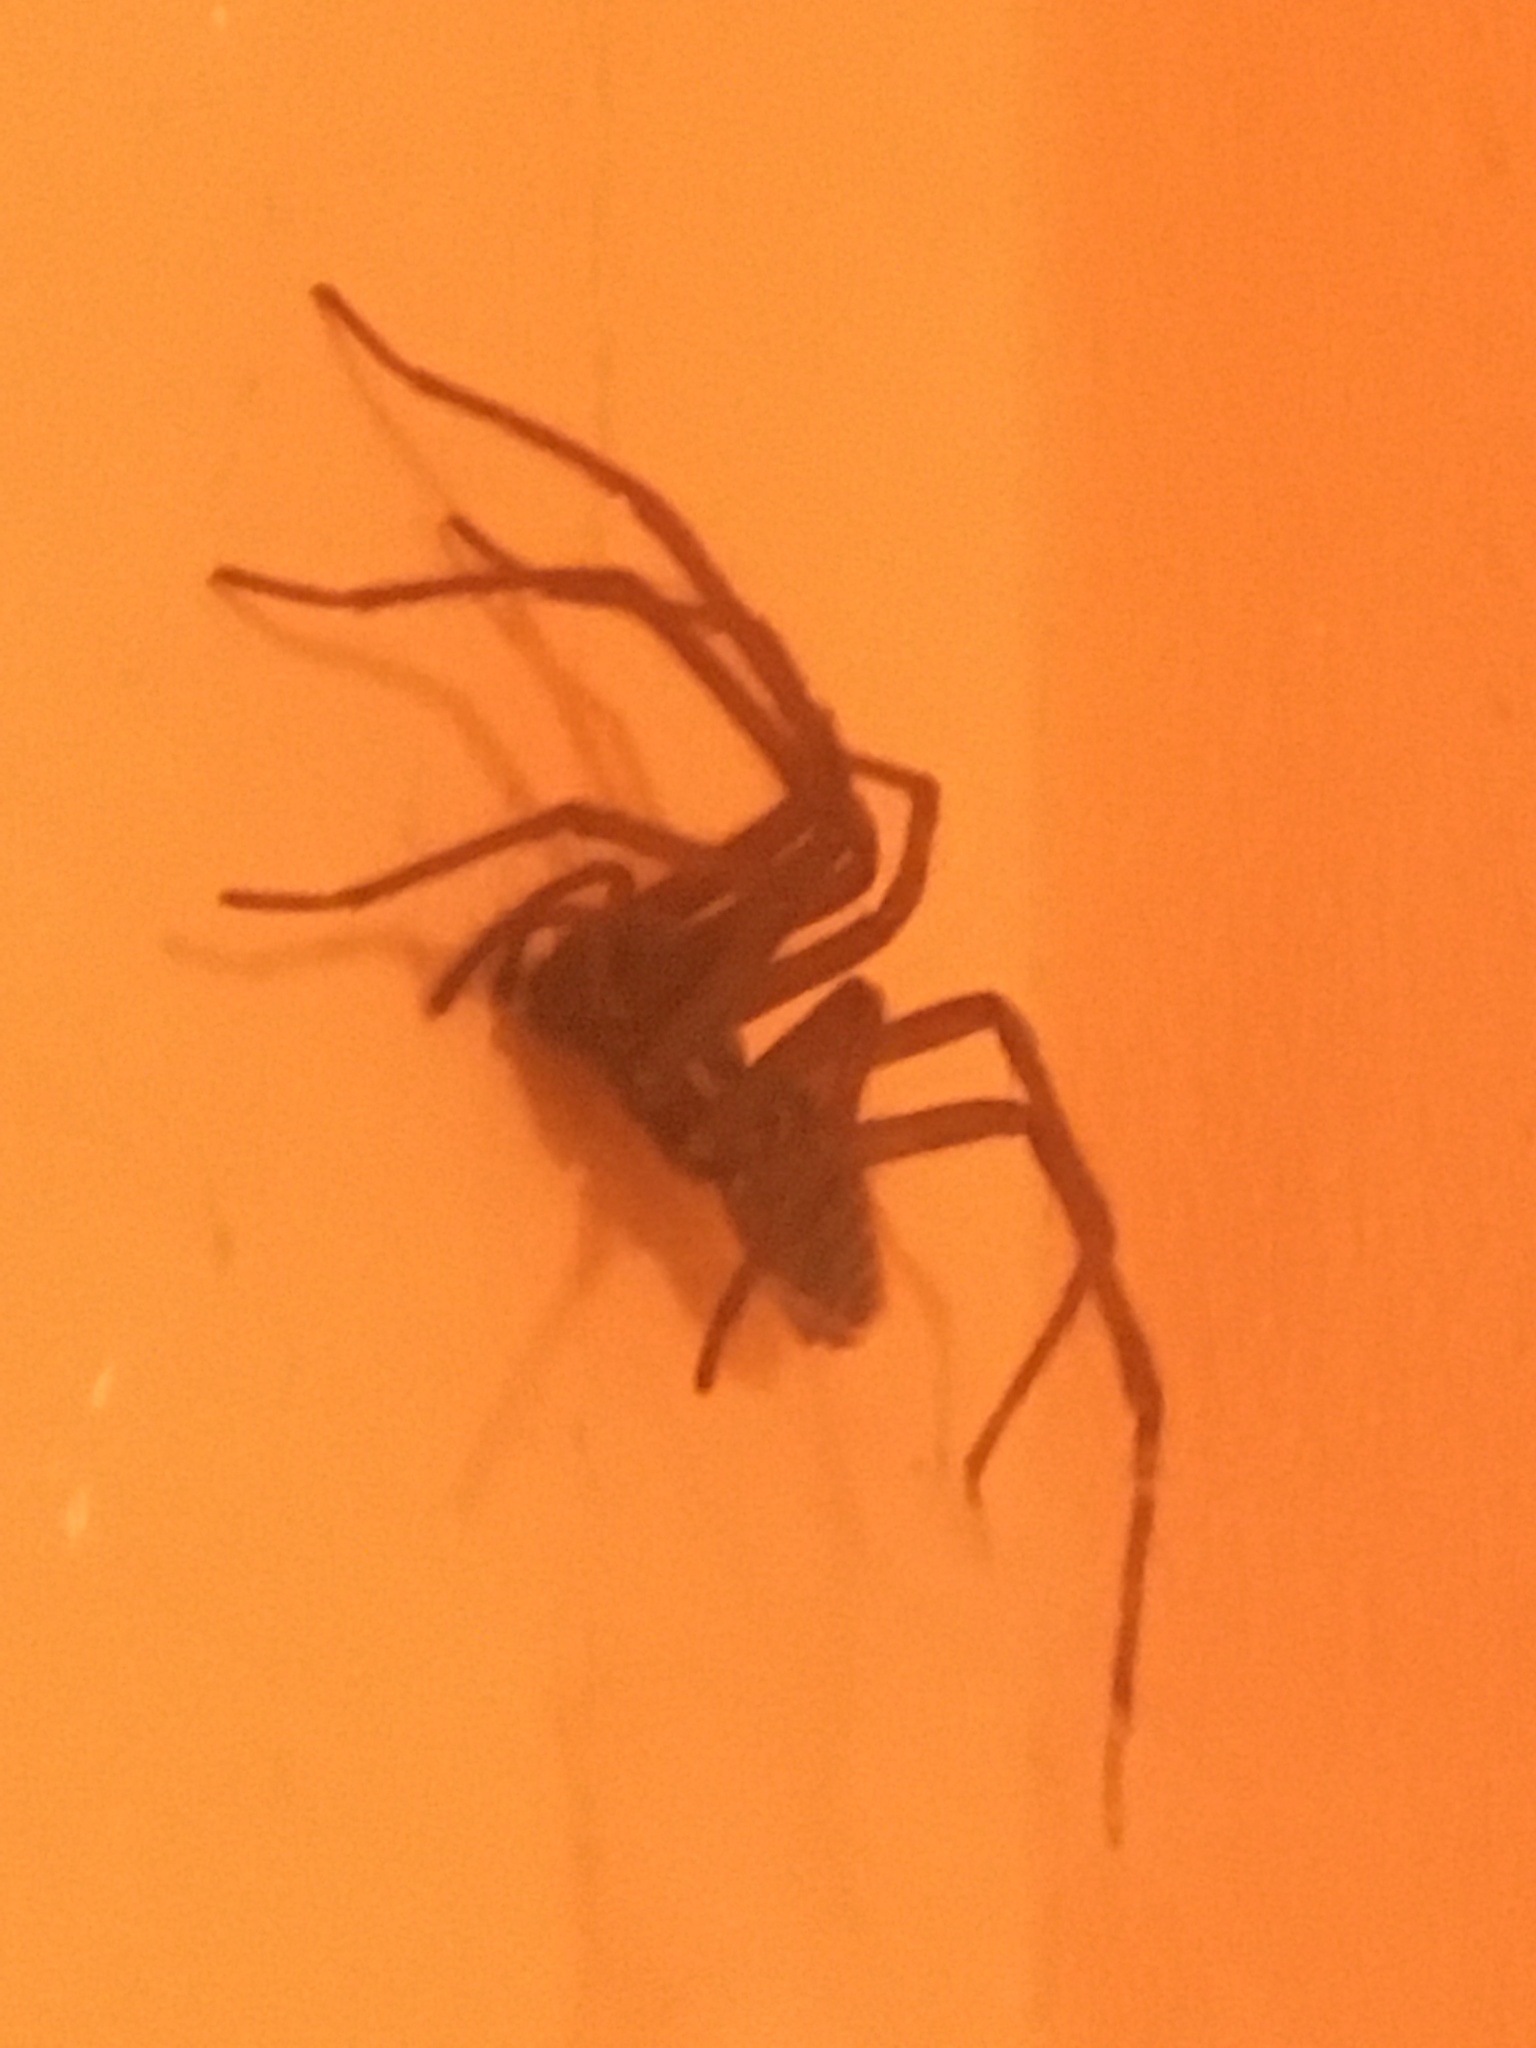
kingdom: Animalia
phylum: Arthropoda
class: Arachnida
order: Araneae
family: Agelenidae
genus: Tegenaria
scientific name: Tegenaria domestica
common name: Barn funnel weaver
